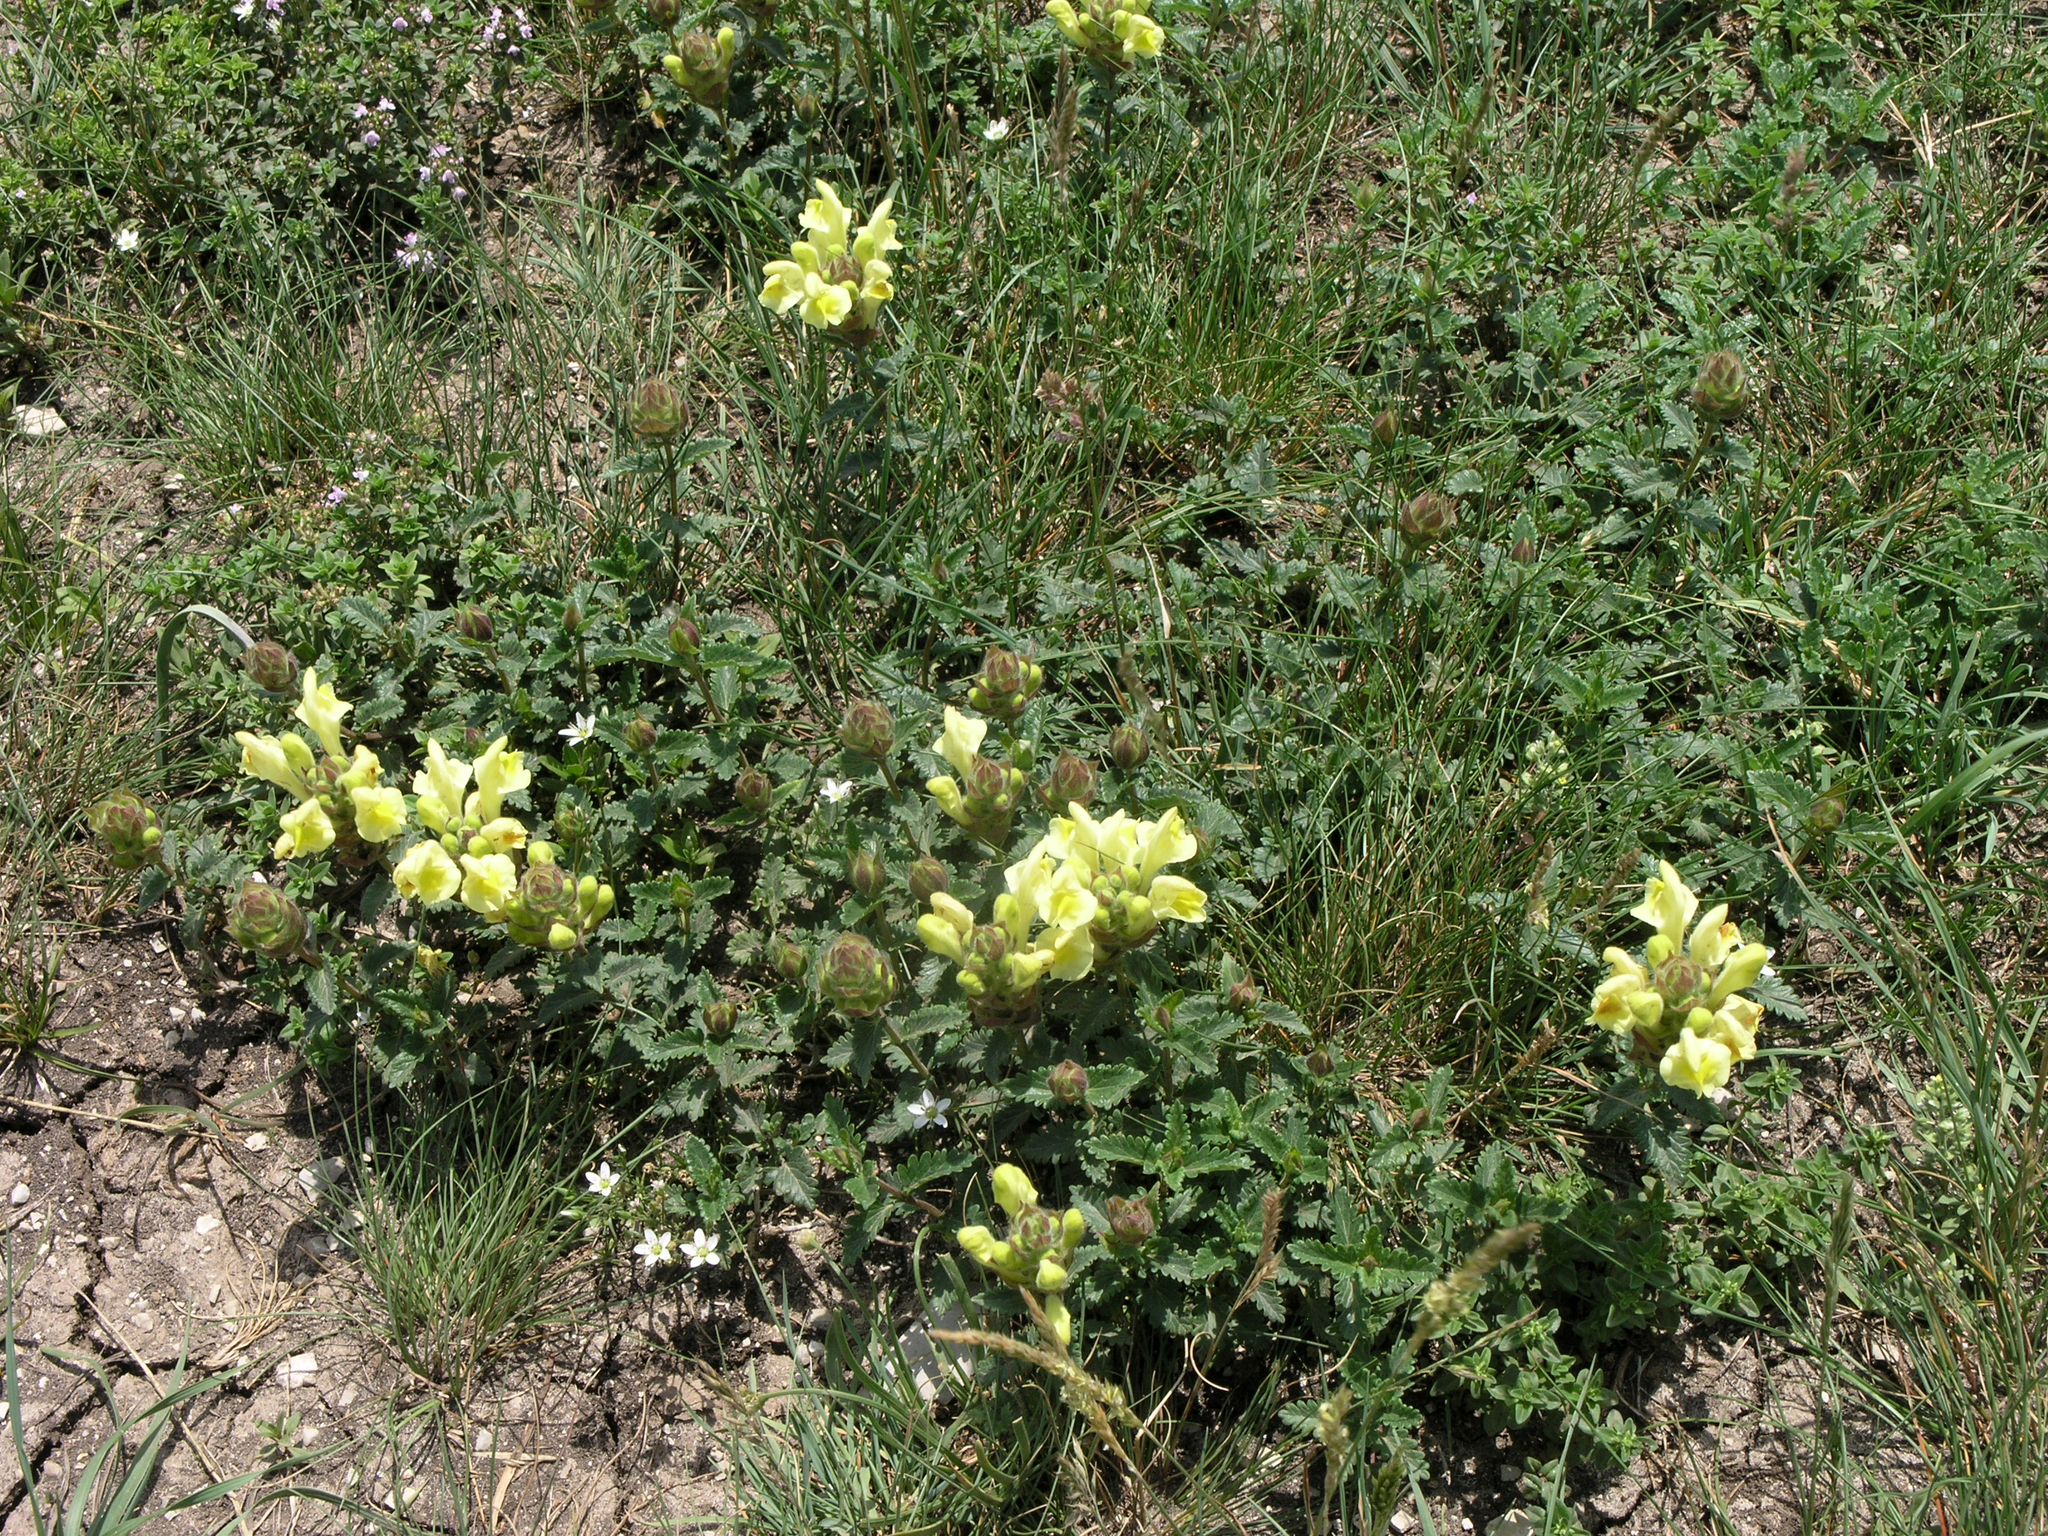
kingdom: Plantae
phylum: Tracheophyta
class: Magnoliopsida
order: Lamiales
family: Lamiaceae
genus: Scutellaria
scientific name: Scutellaria oreophila
